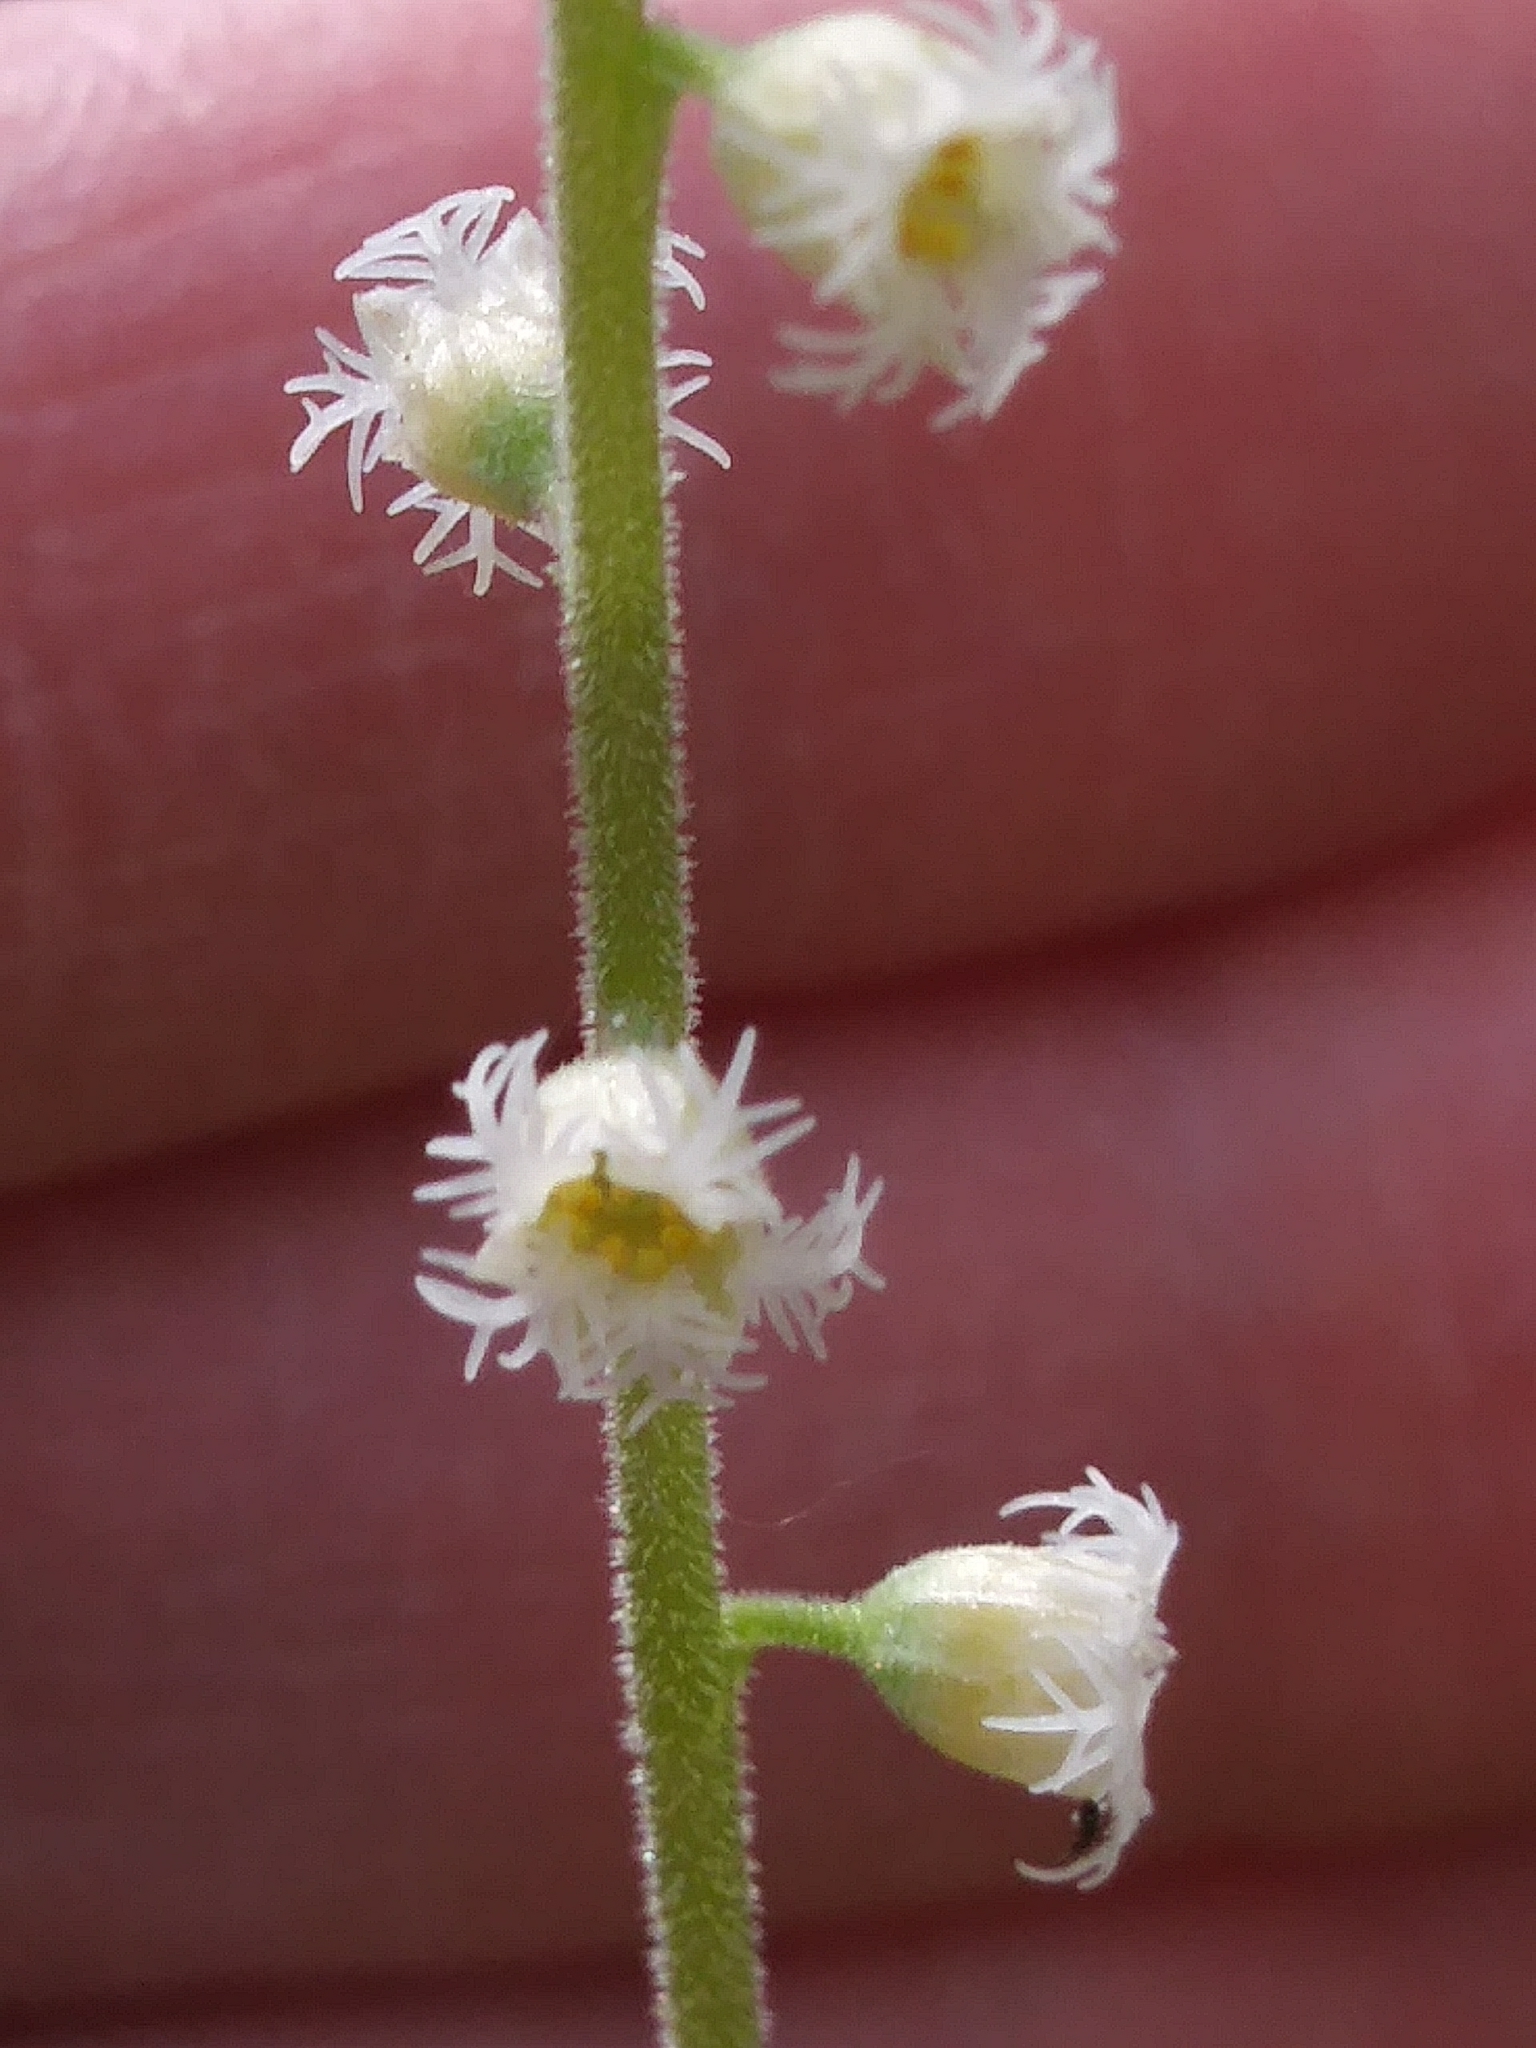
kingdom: Plantae
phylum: Tracheophyta
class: Magnoliopsida
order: Saxifragales
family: Saxifragaceae
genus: Mitella
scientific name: Mitella diphylla
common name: Coolwort
